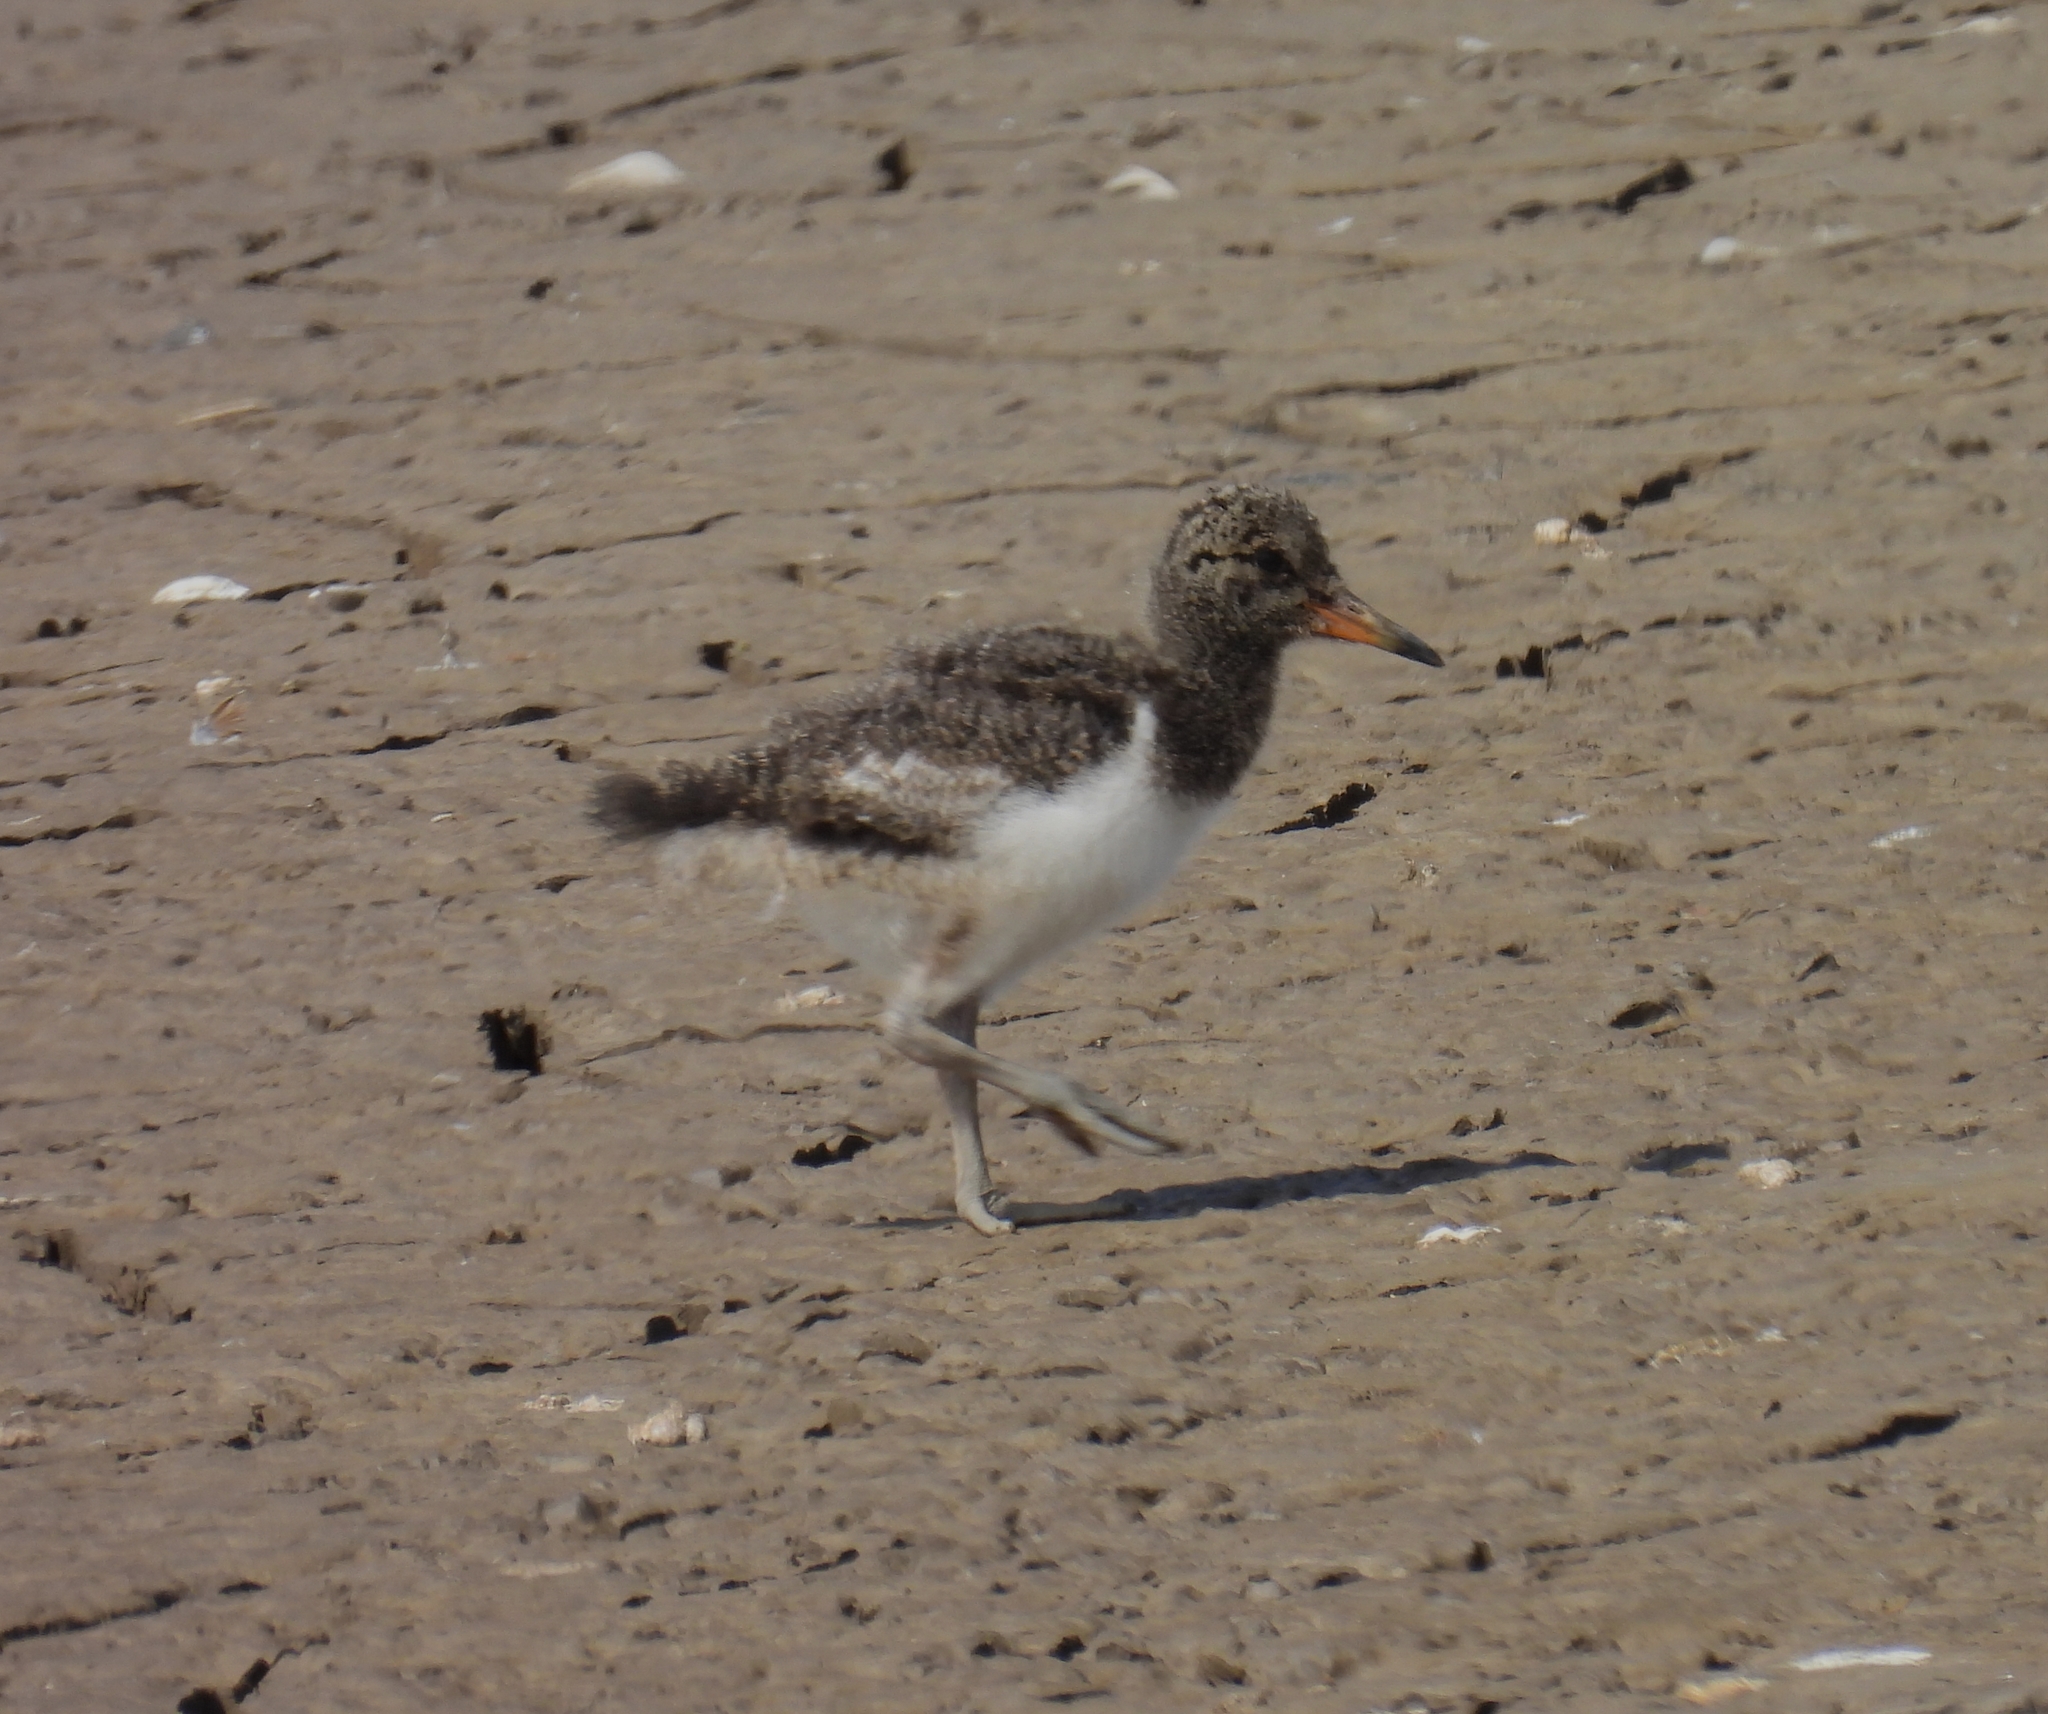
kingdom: Animalia
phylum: Chordata
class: Aves
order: Charadriiformes
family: Haematopodidae
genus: Haematopus
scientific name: Haematopus ostralegus
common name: Eurasian oystercatcher
